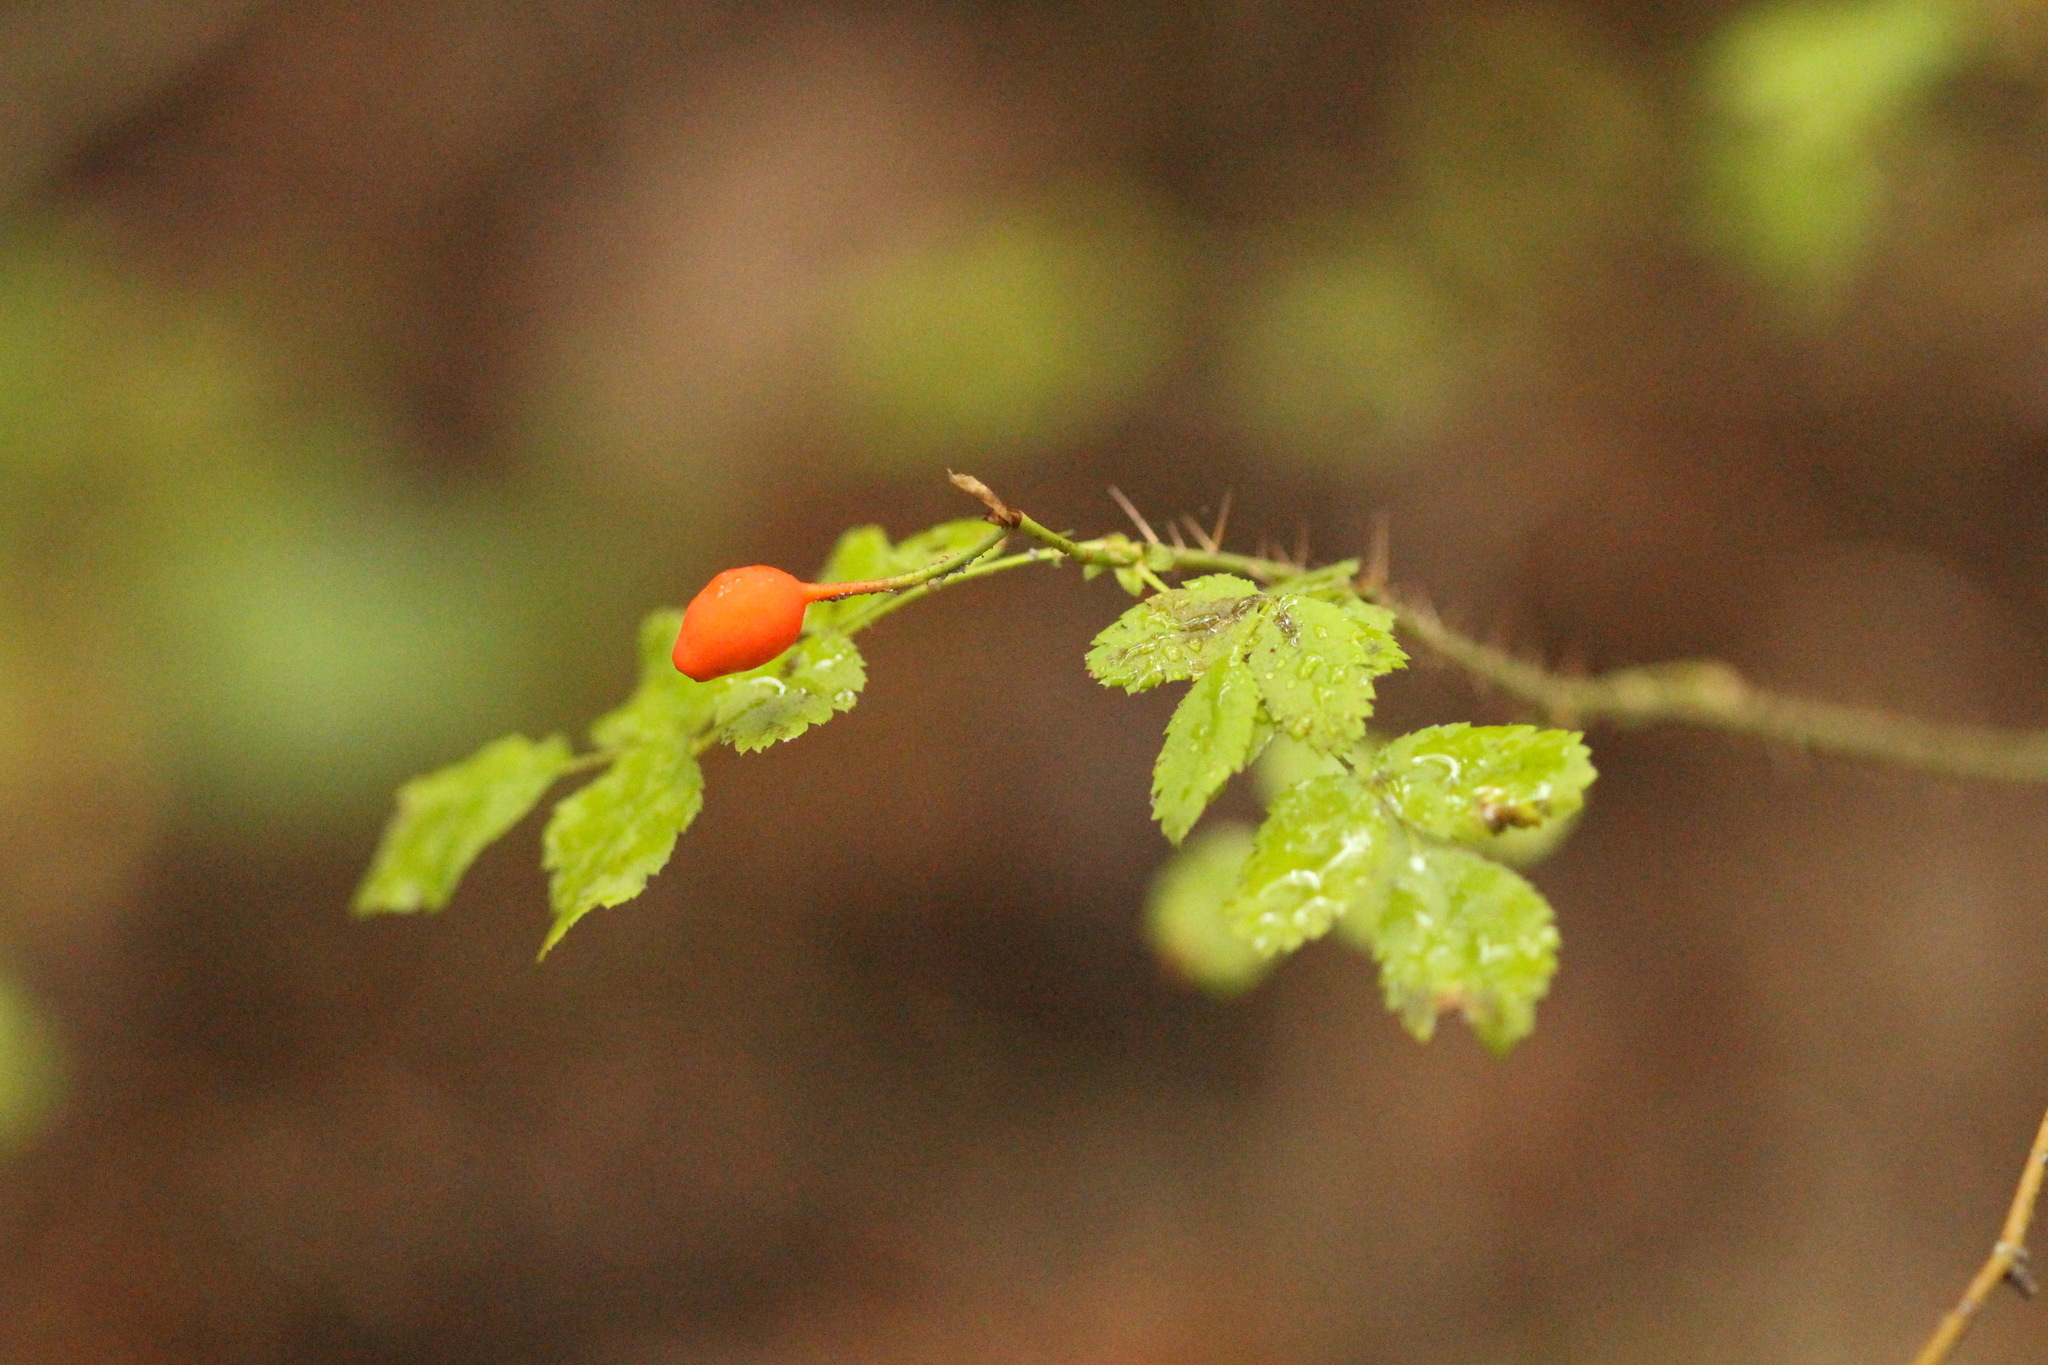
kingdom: Plantae
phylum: Tracheophyta
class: Magnoliopsida
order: Rosales
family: Rosaceae
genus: Rosa
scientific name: Rosa gymnocarpa
